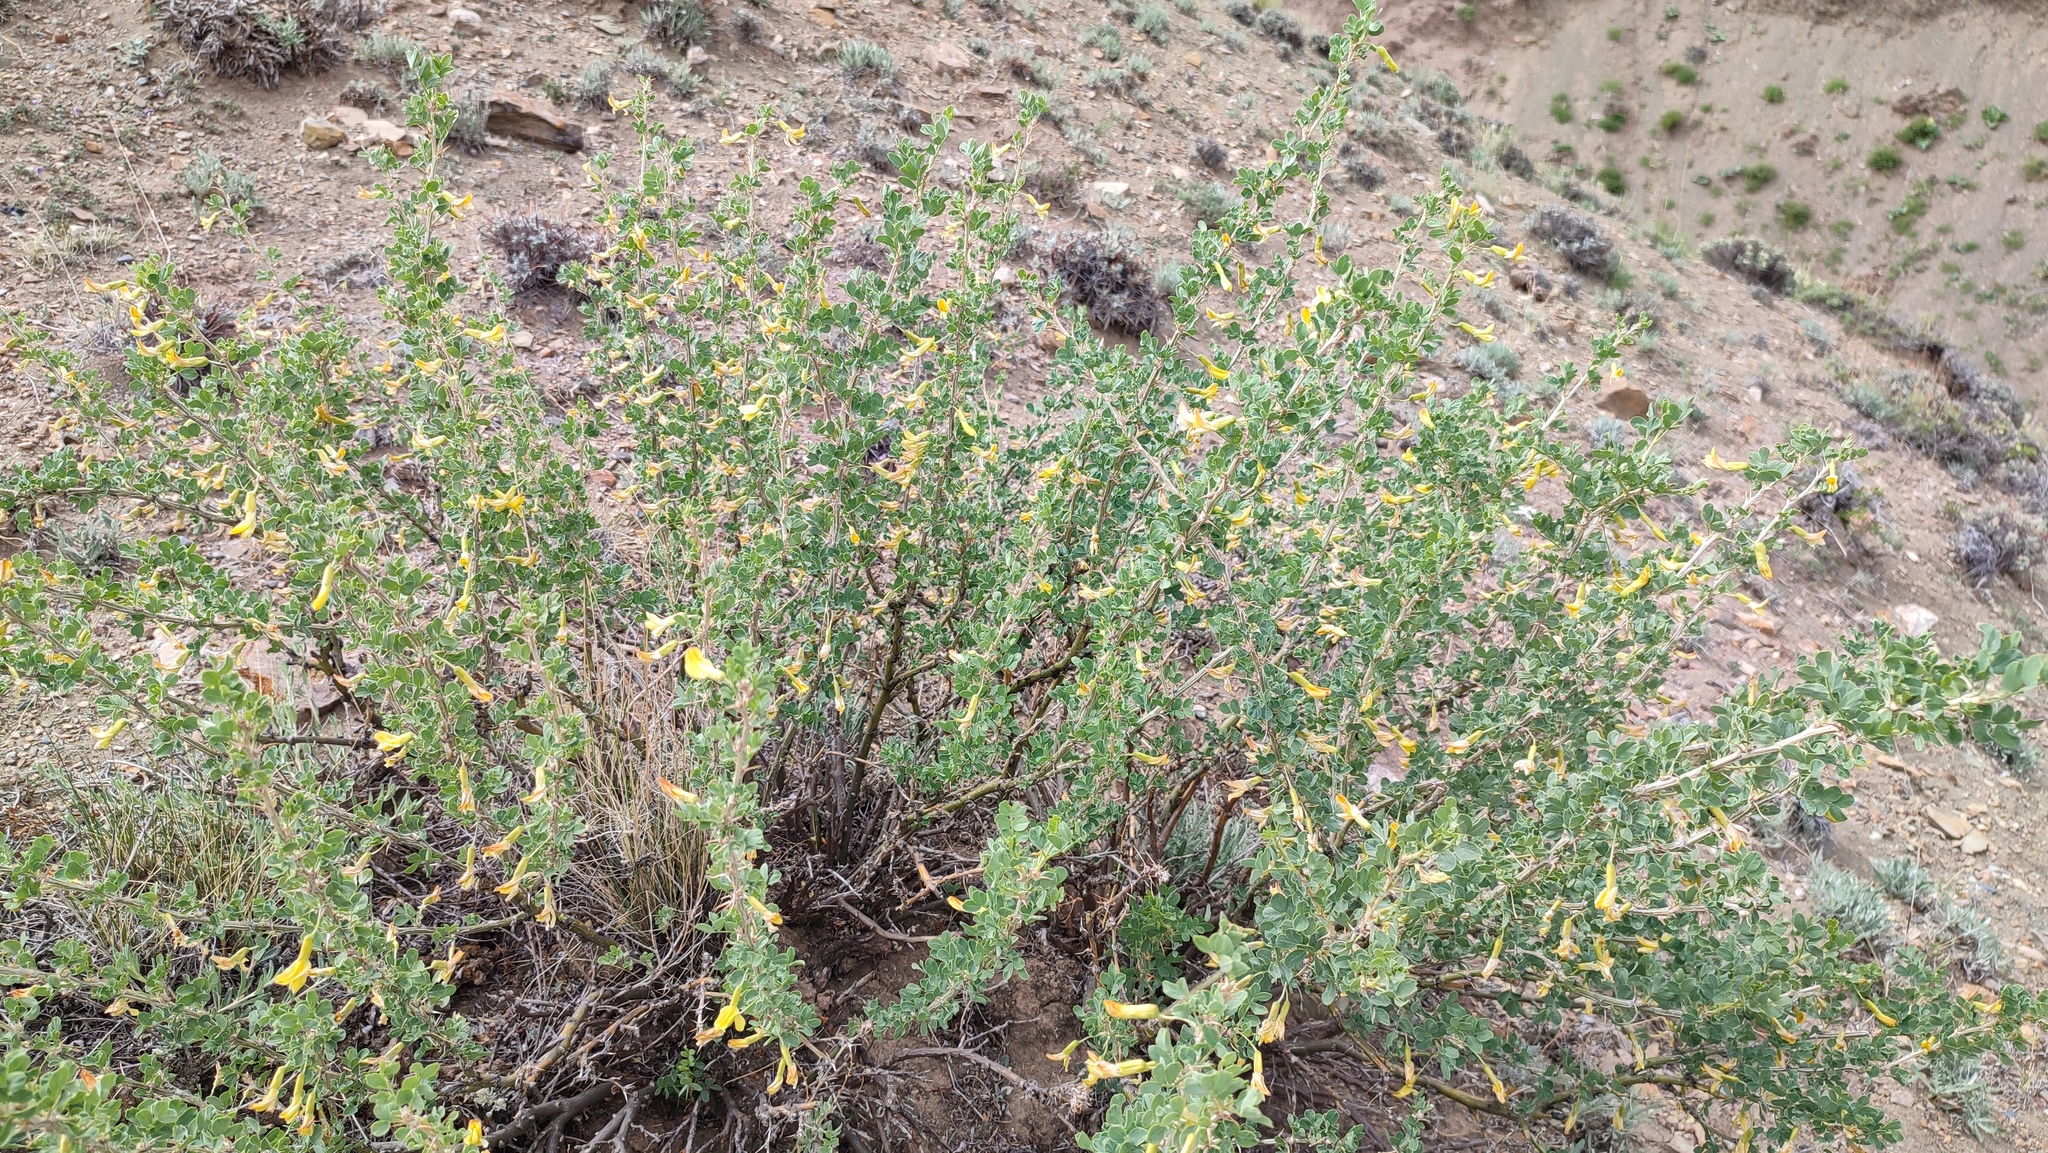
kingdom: Plantae
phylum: Tracheophyta
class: Magnoliopsida
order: Fabales
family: Fabaceae
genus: Caragana
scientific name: Caragana bungei
